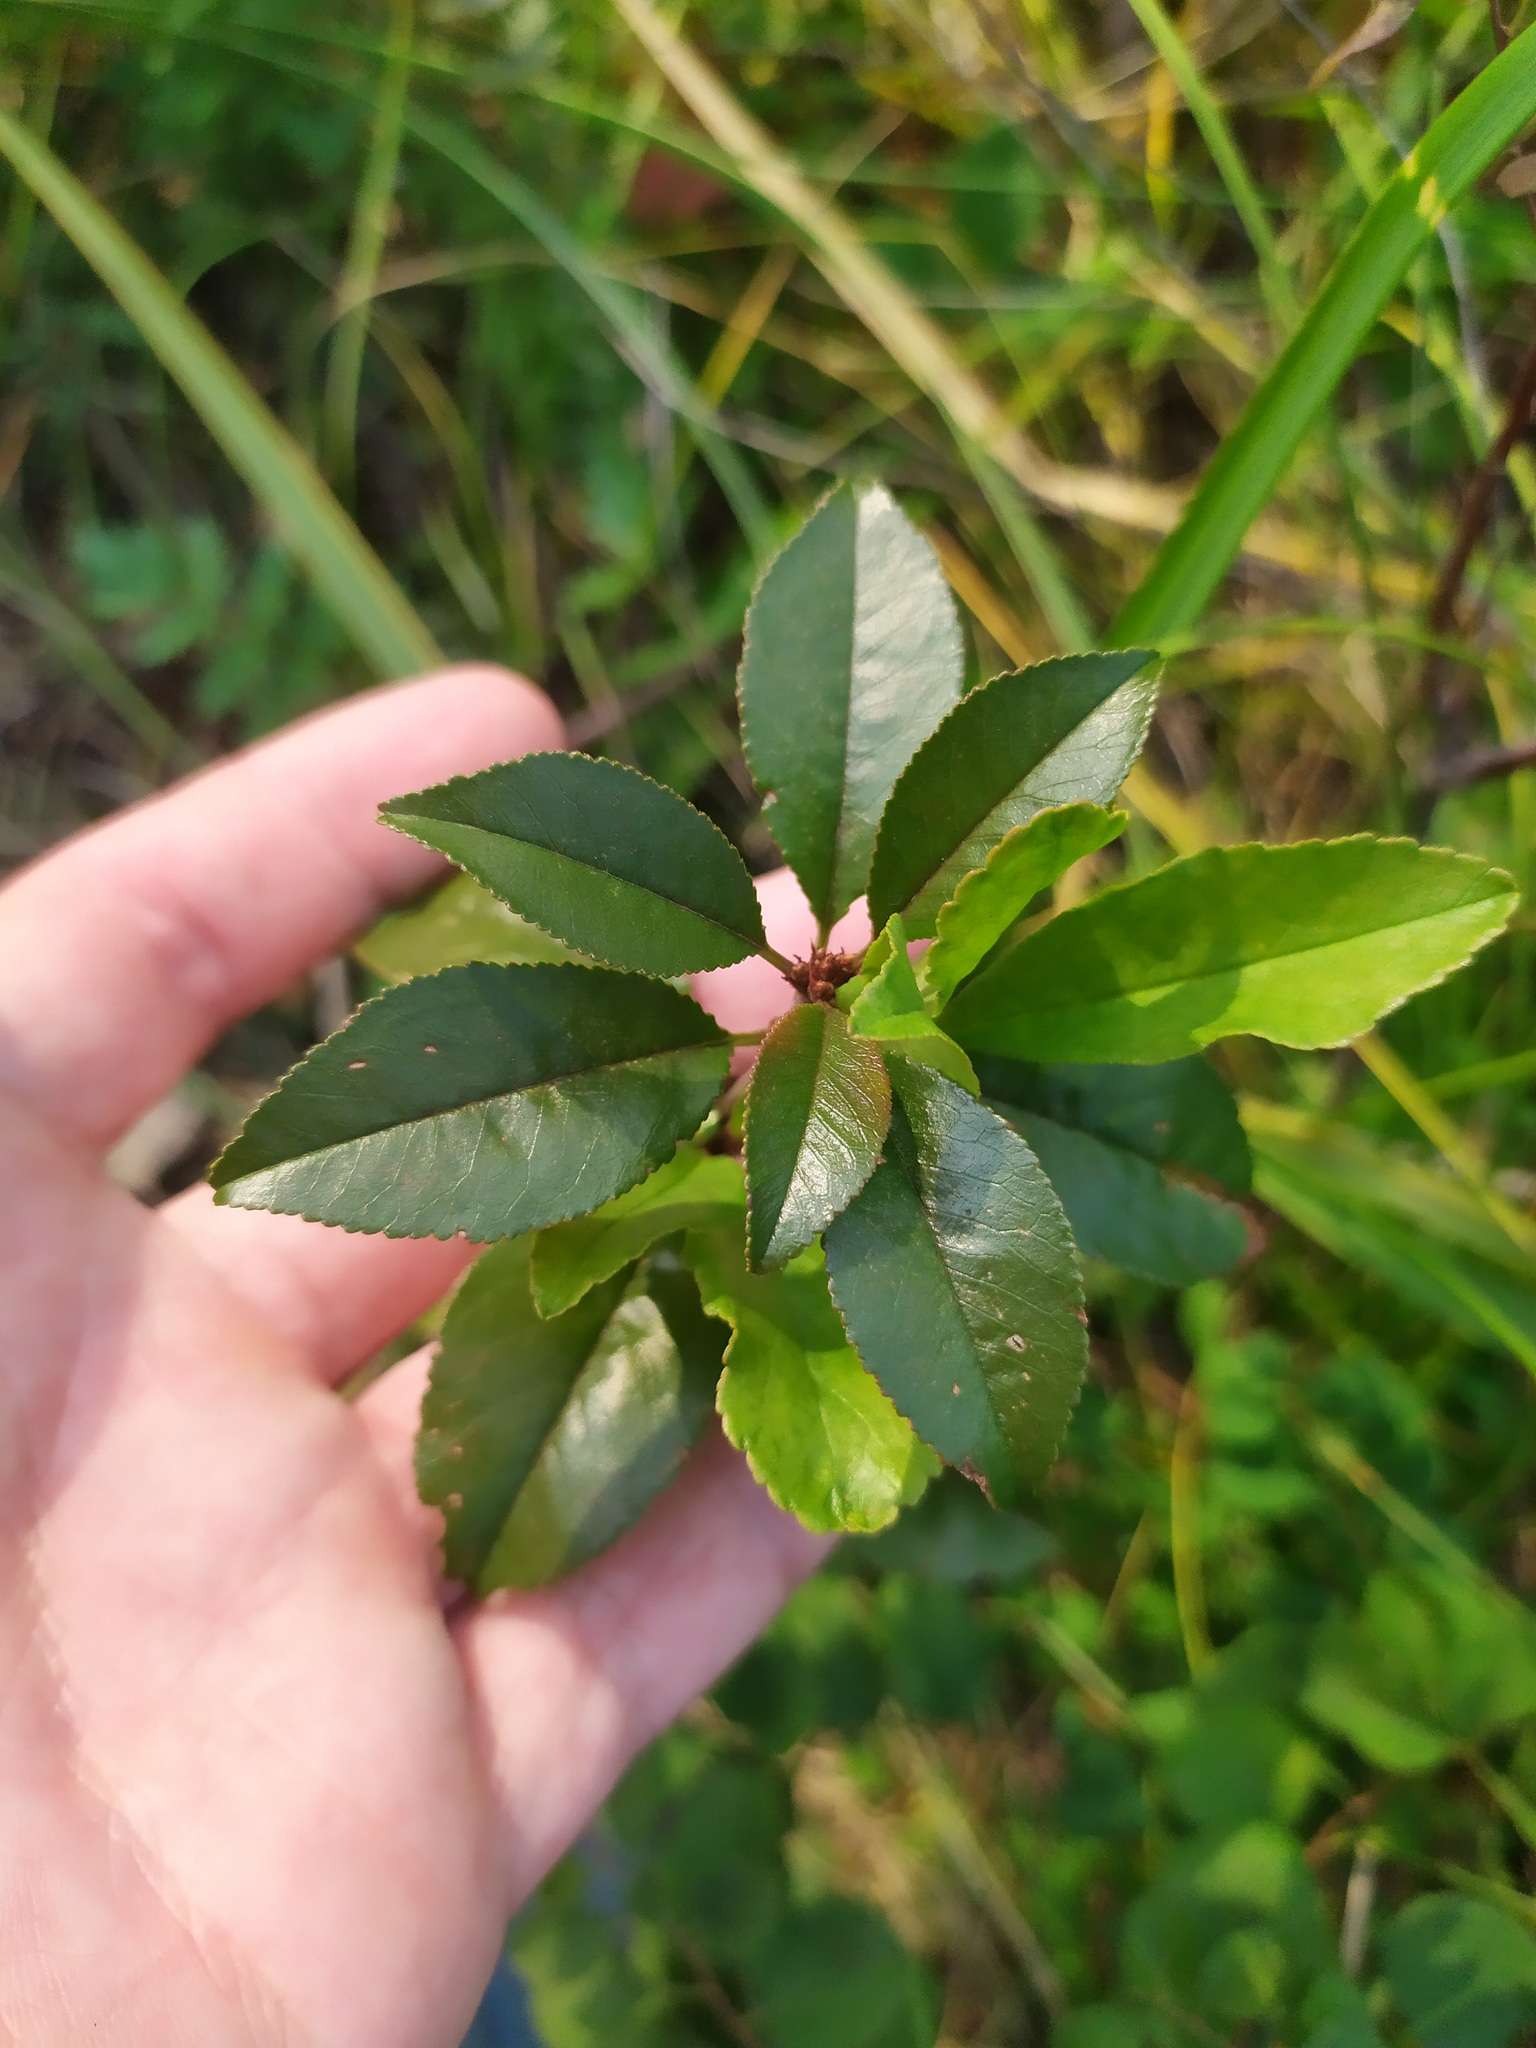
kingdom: Plantae
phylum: Tracheophyta
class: Magnoliopsida
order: Rosales
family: Rosaceae
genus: Prunus
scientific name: Prunus fruticosa
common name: European dwarf cherry
